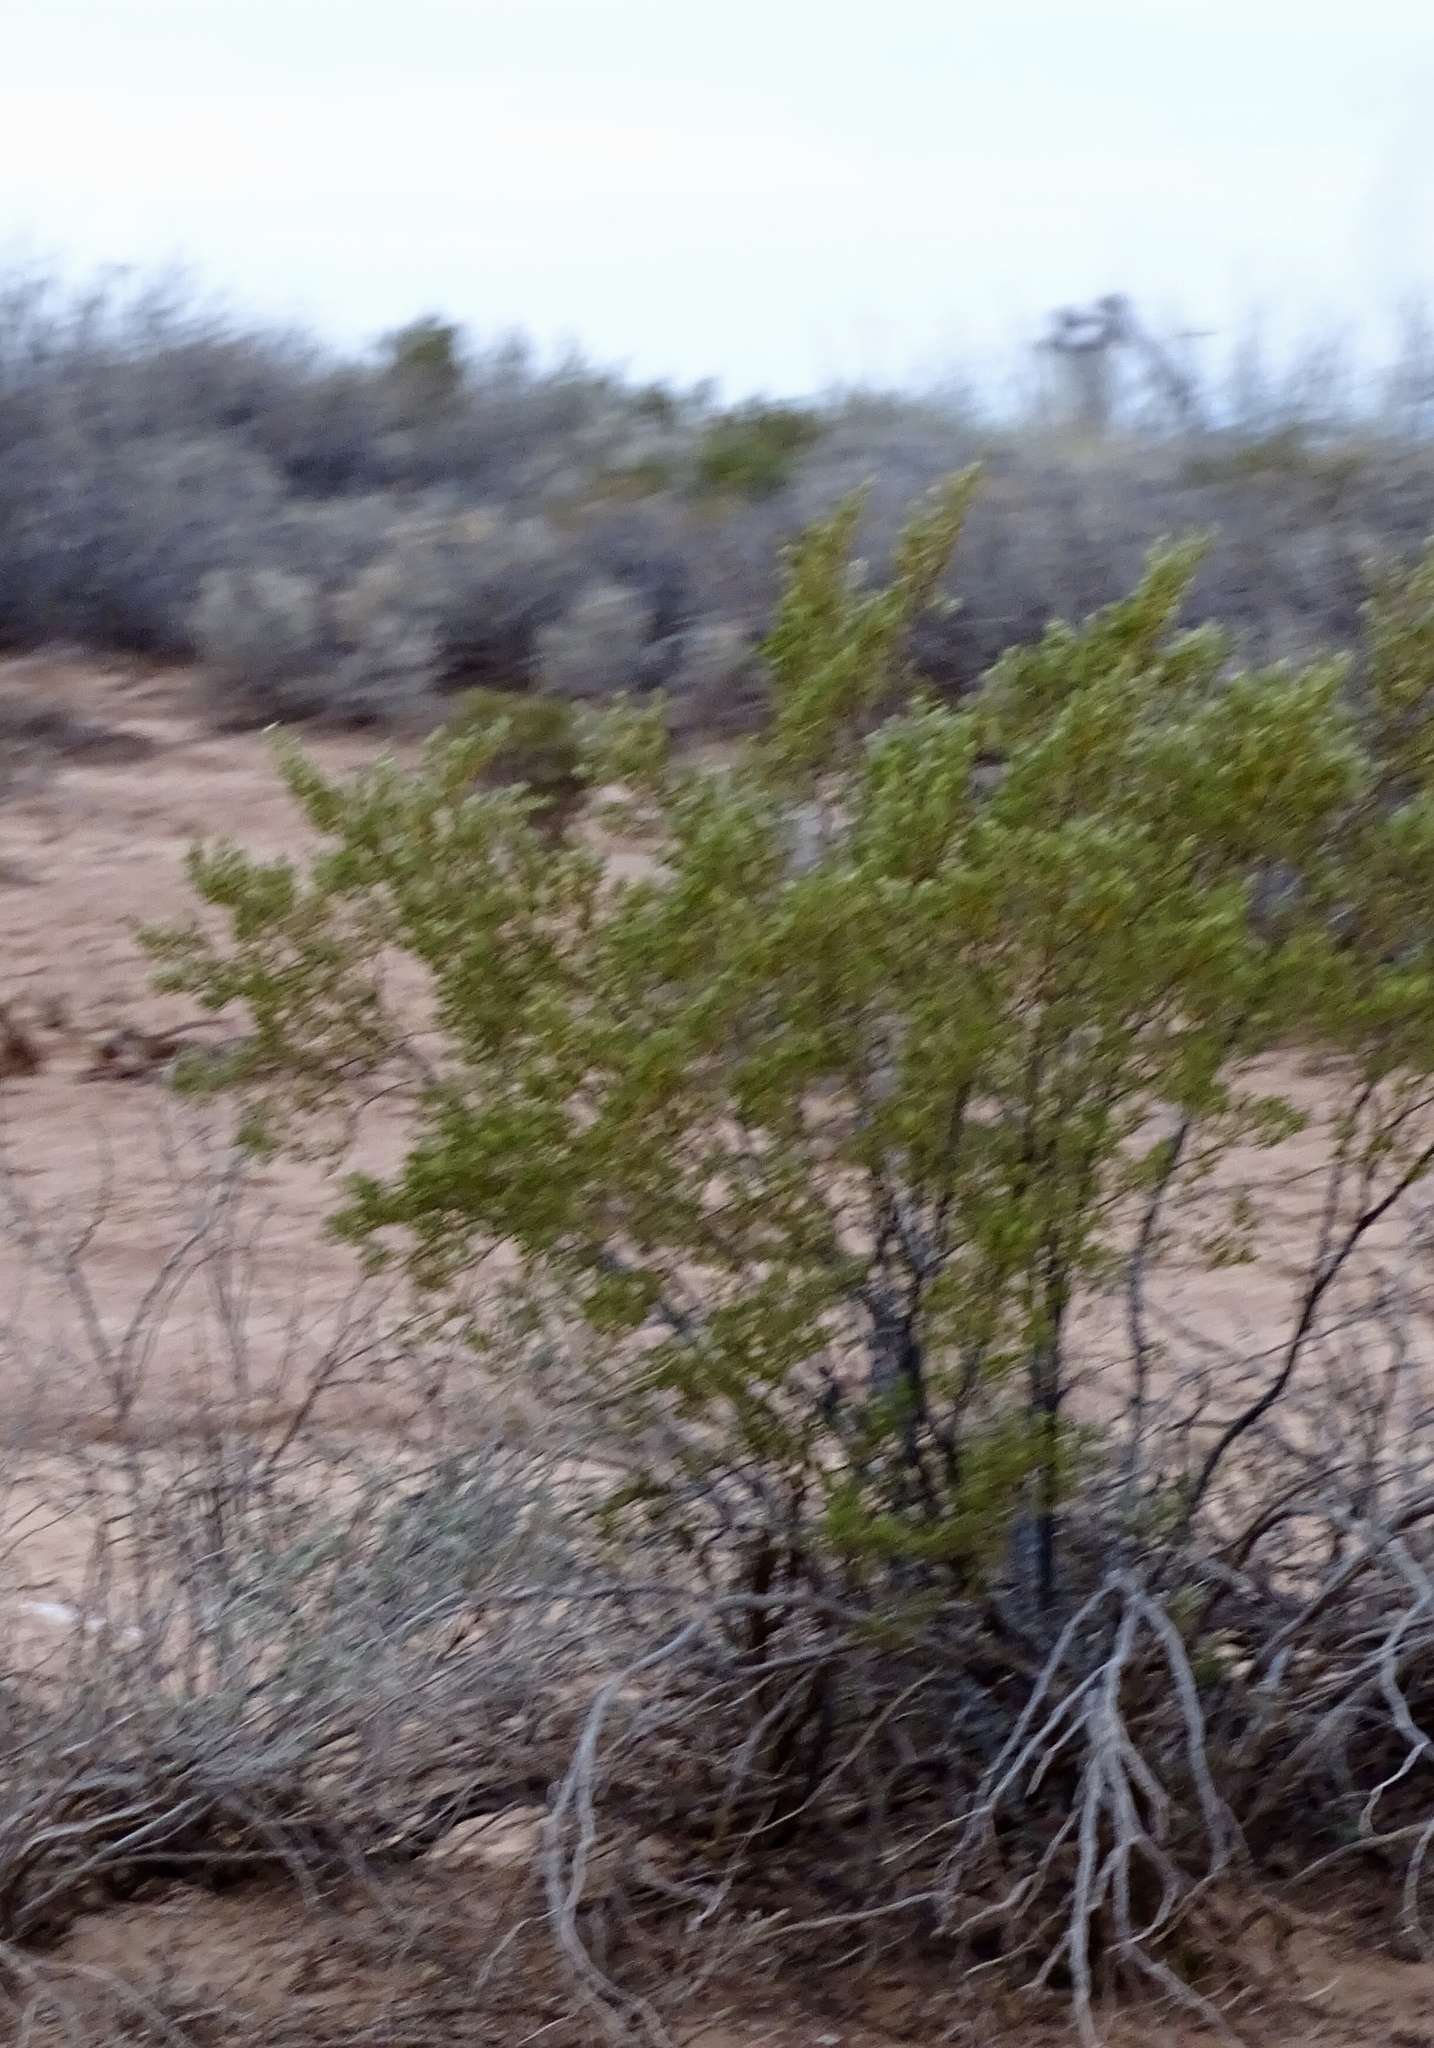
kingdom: Plantae
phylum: Tracheophyta
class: Magnoliopsida
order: Zygophyllales
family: Zygophyllaceae
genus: Larrea
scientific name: Larrea tridentata
